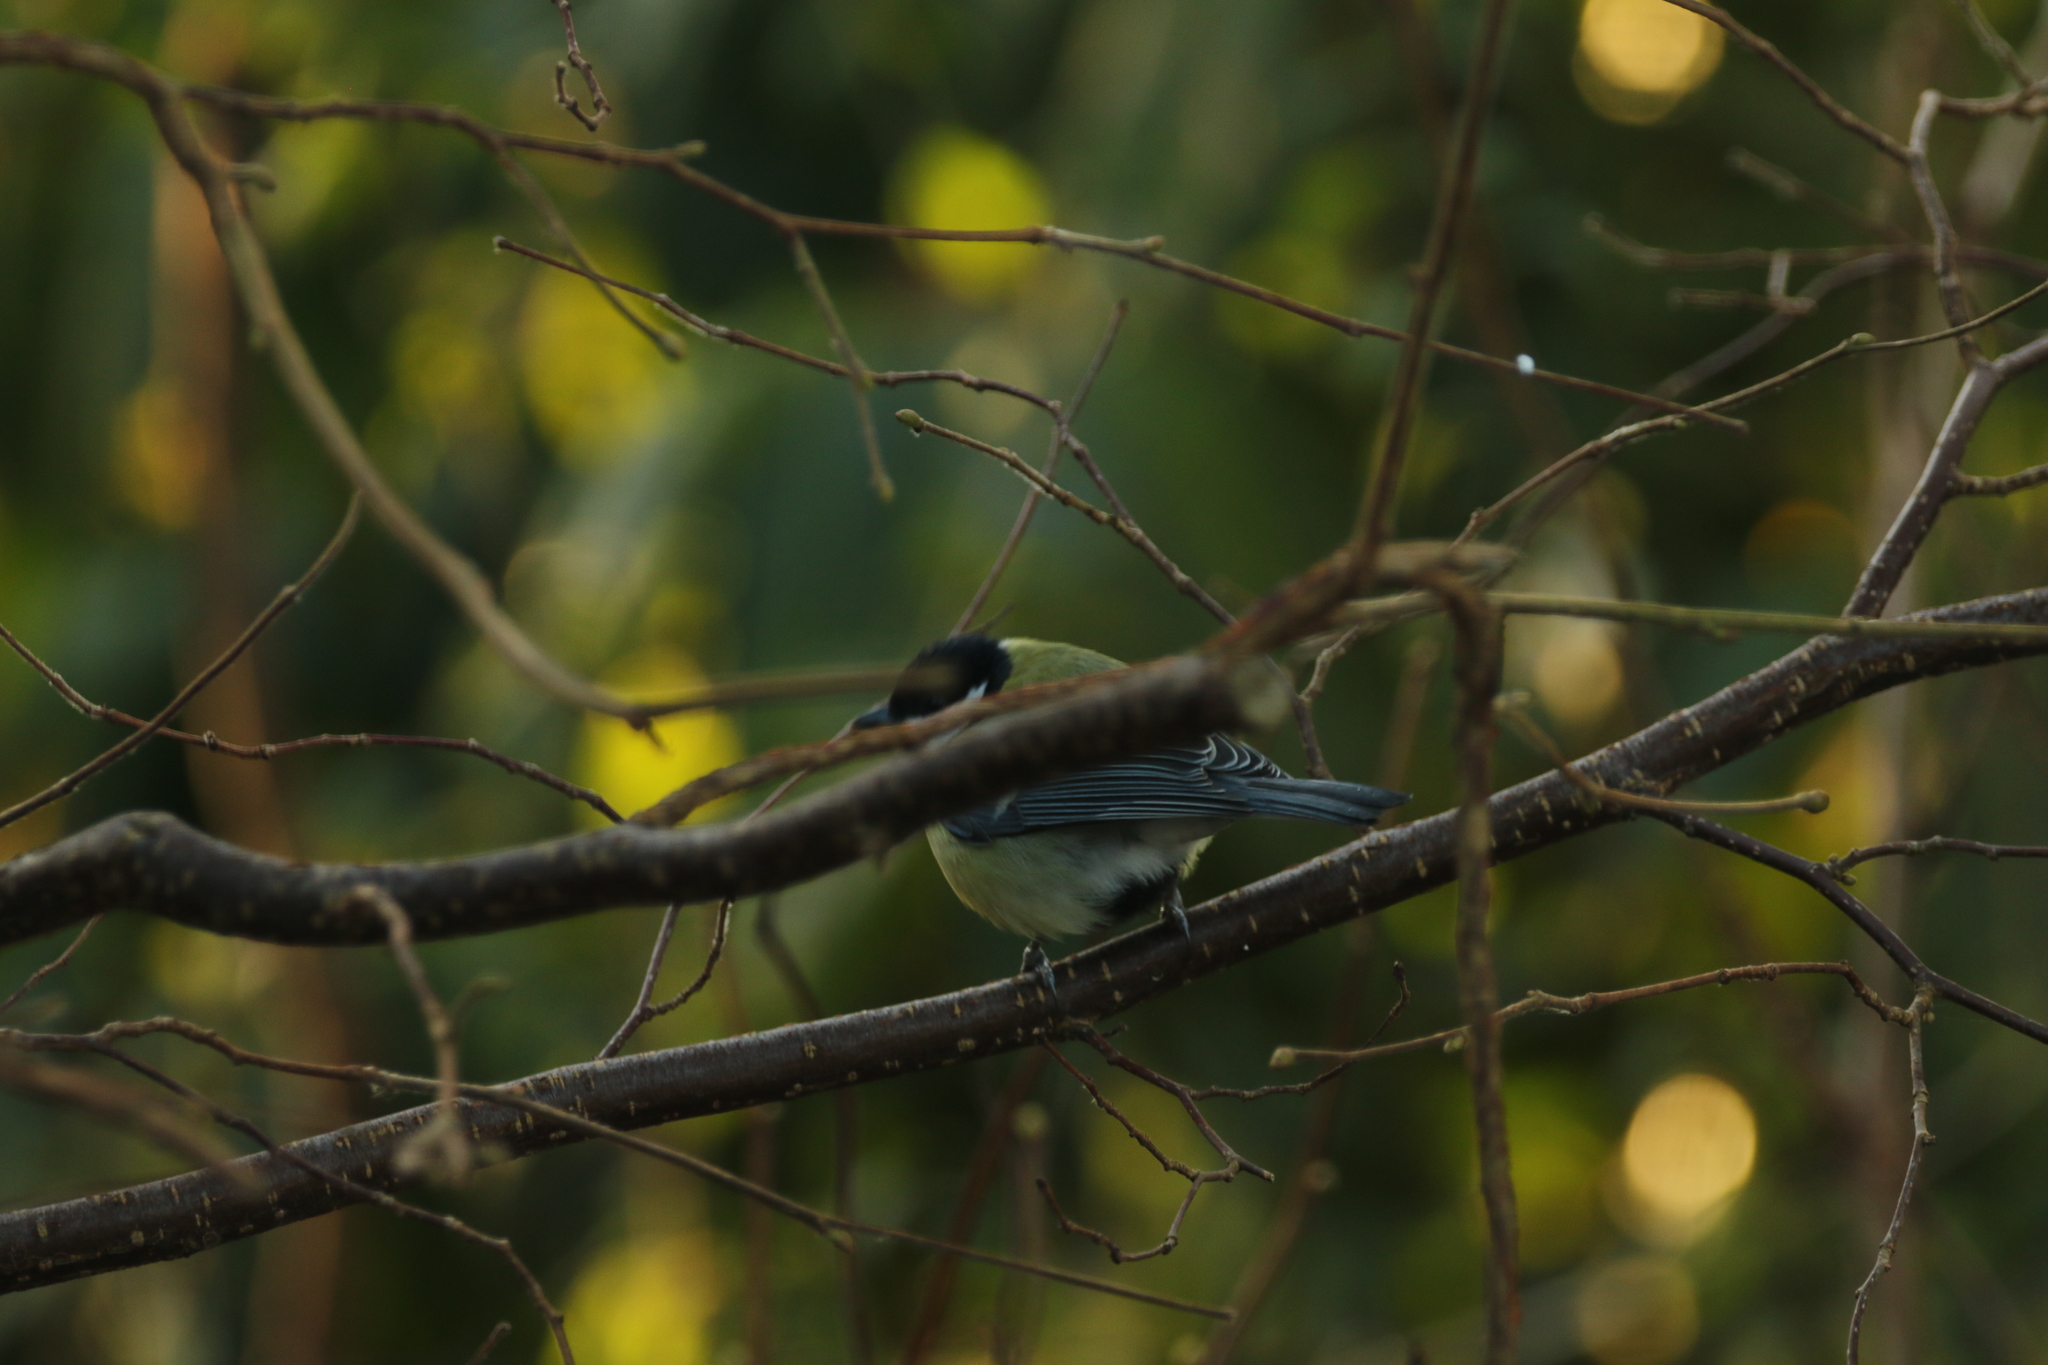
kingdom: Animalia
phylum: Chordata
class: Aves
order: Passeriformes
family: Paridae
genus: Parus
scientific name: Parus major
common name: Great tit
